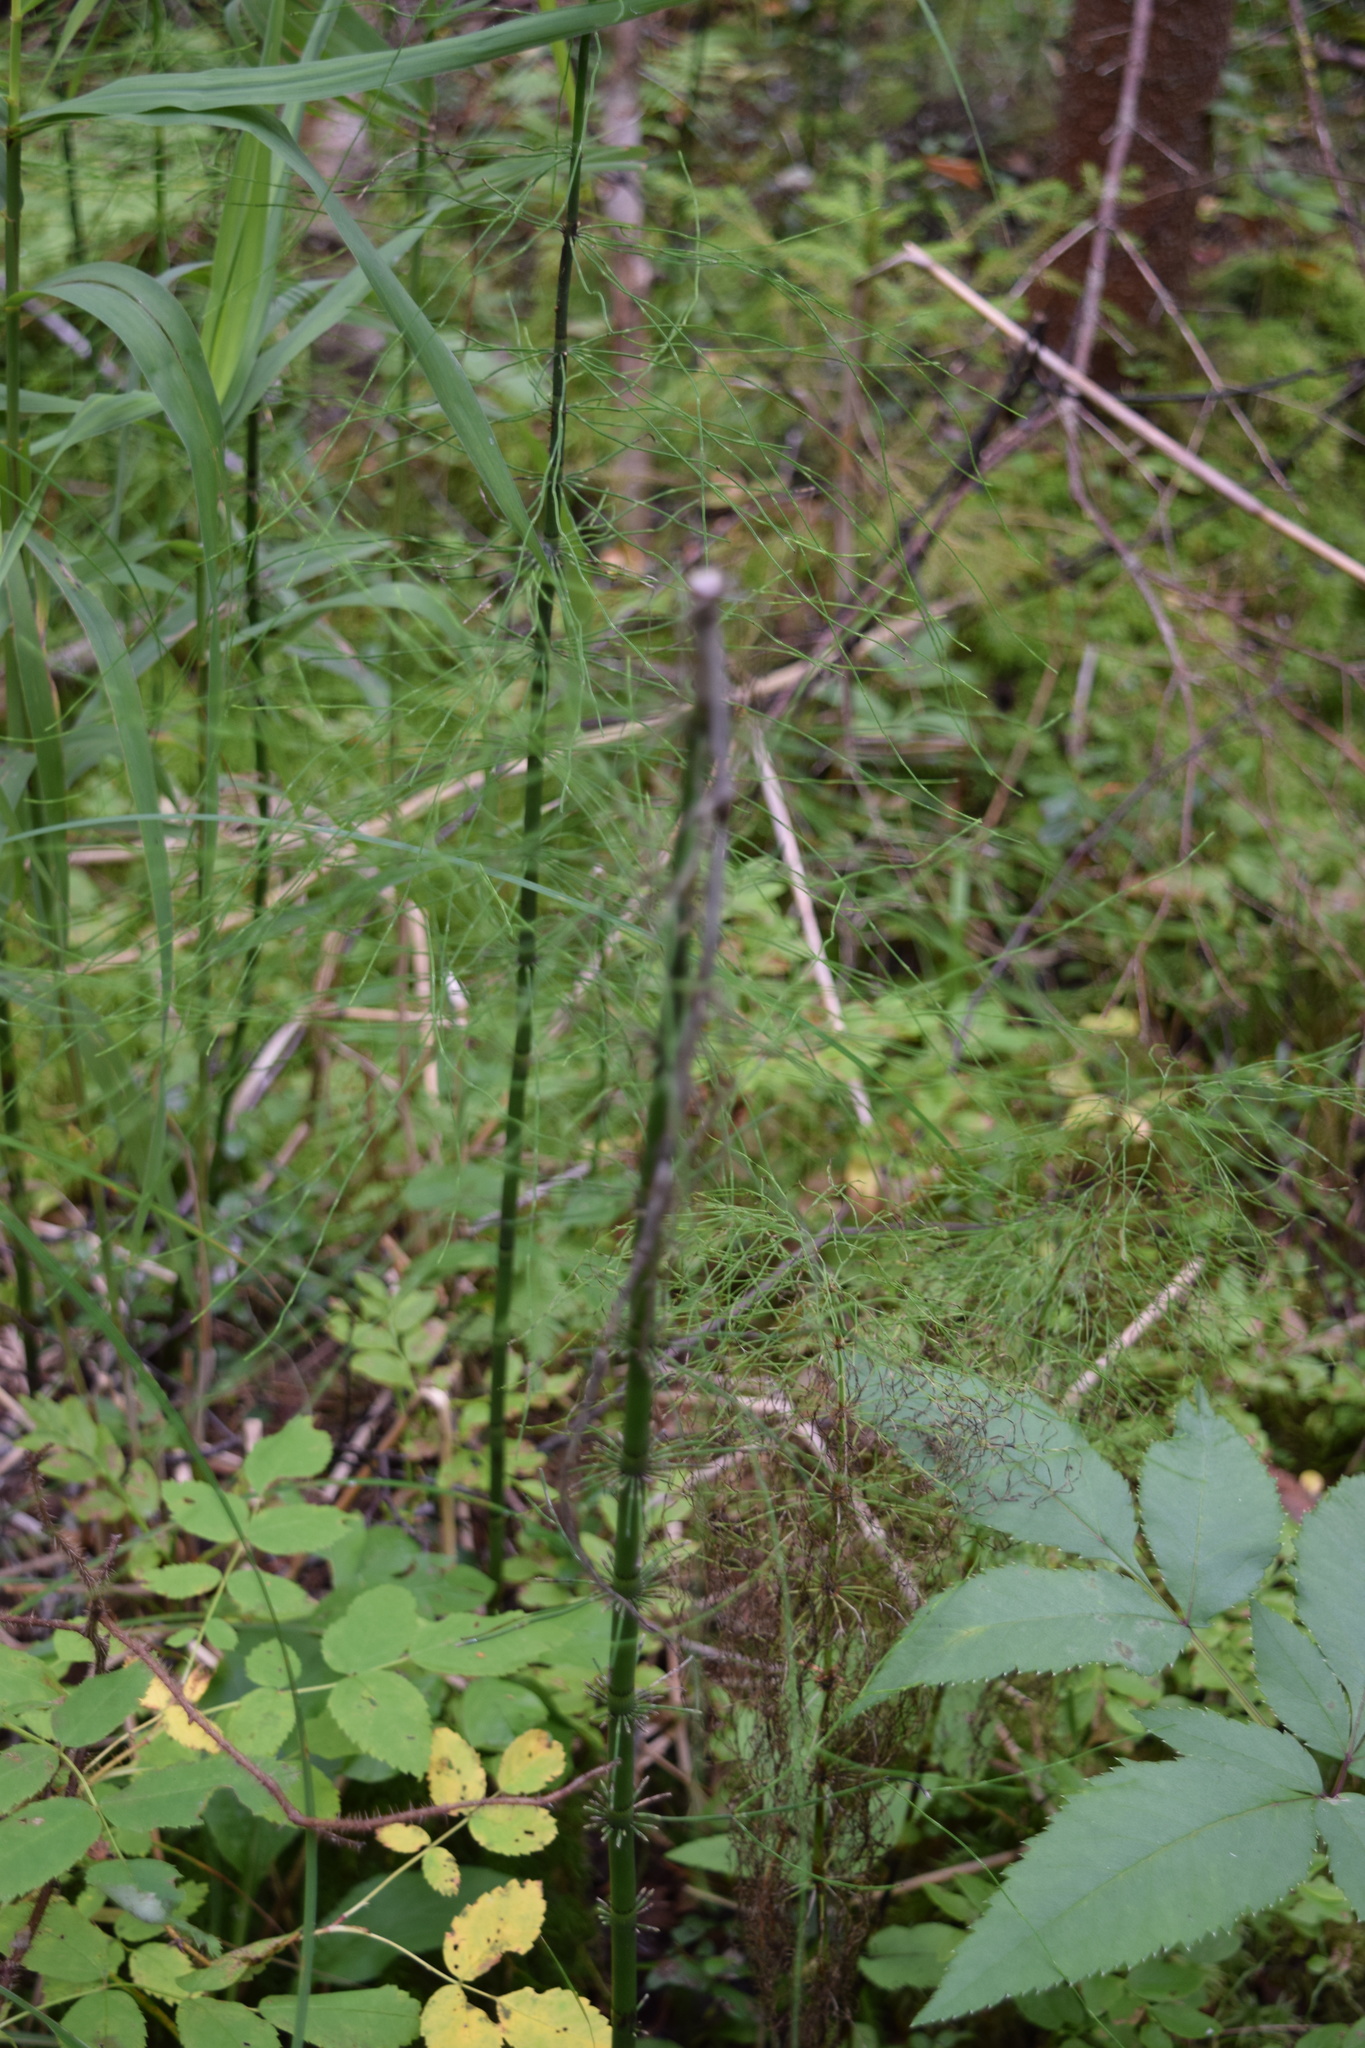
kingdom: Plantae
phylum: Tracheophyta
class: Polypodiopsida
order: Equisetales
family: Equisetaceae
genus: Equisetum
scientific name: Equisetum fluviatile
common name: Water horsetail
